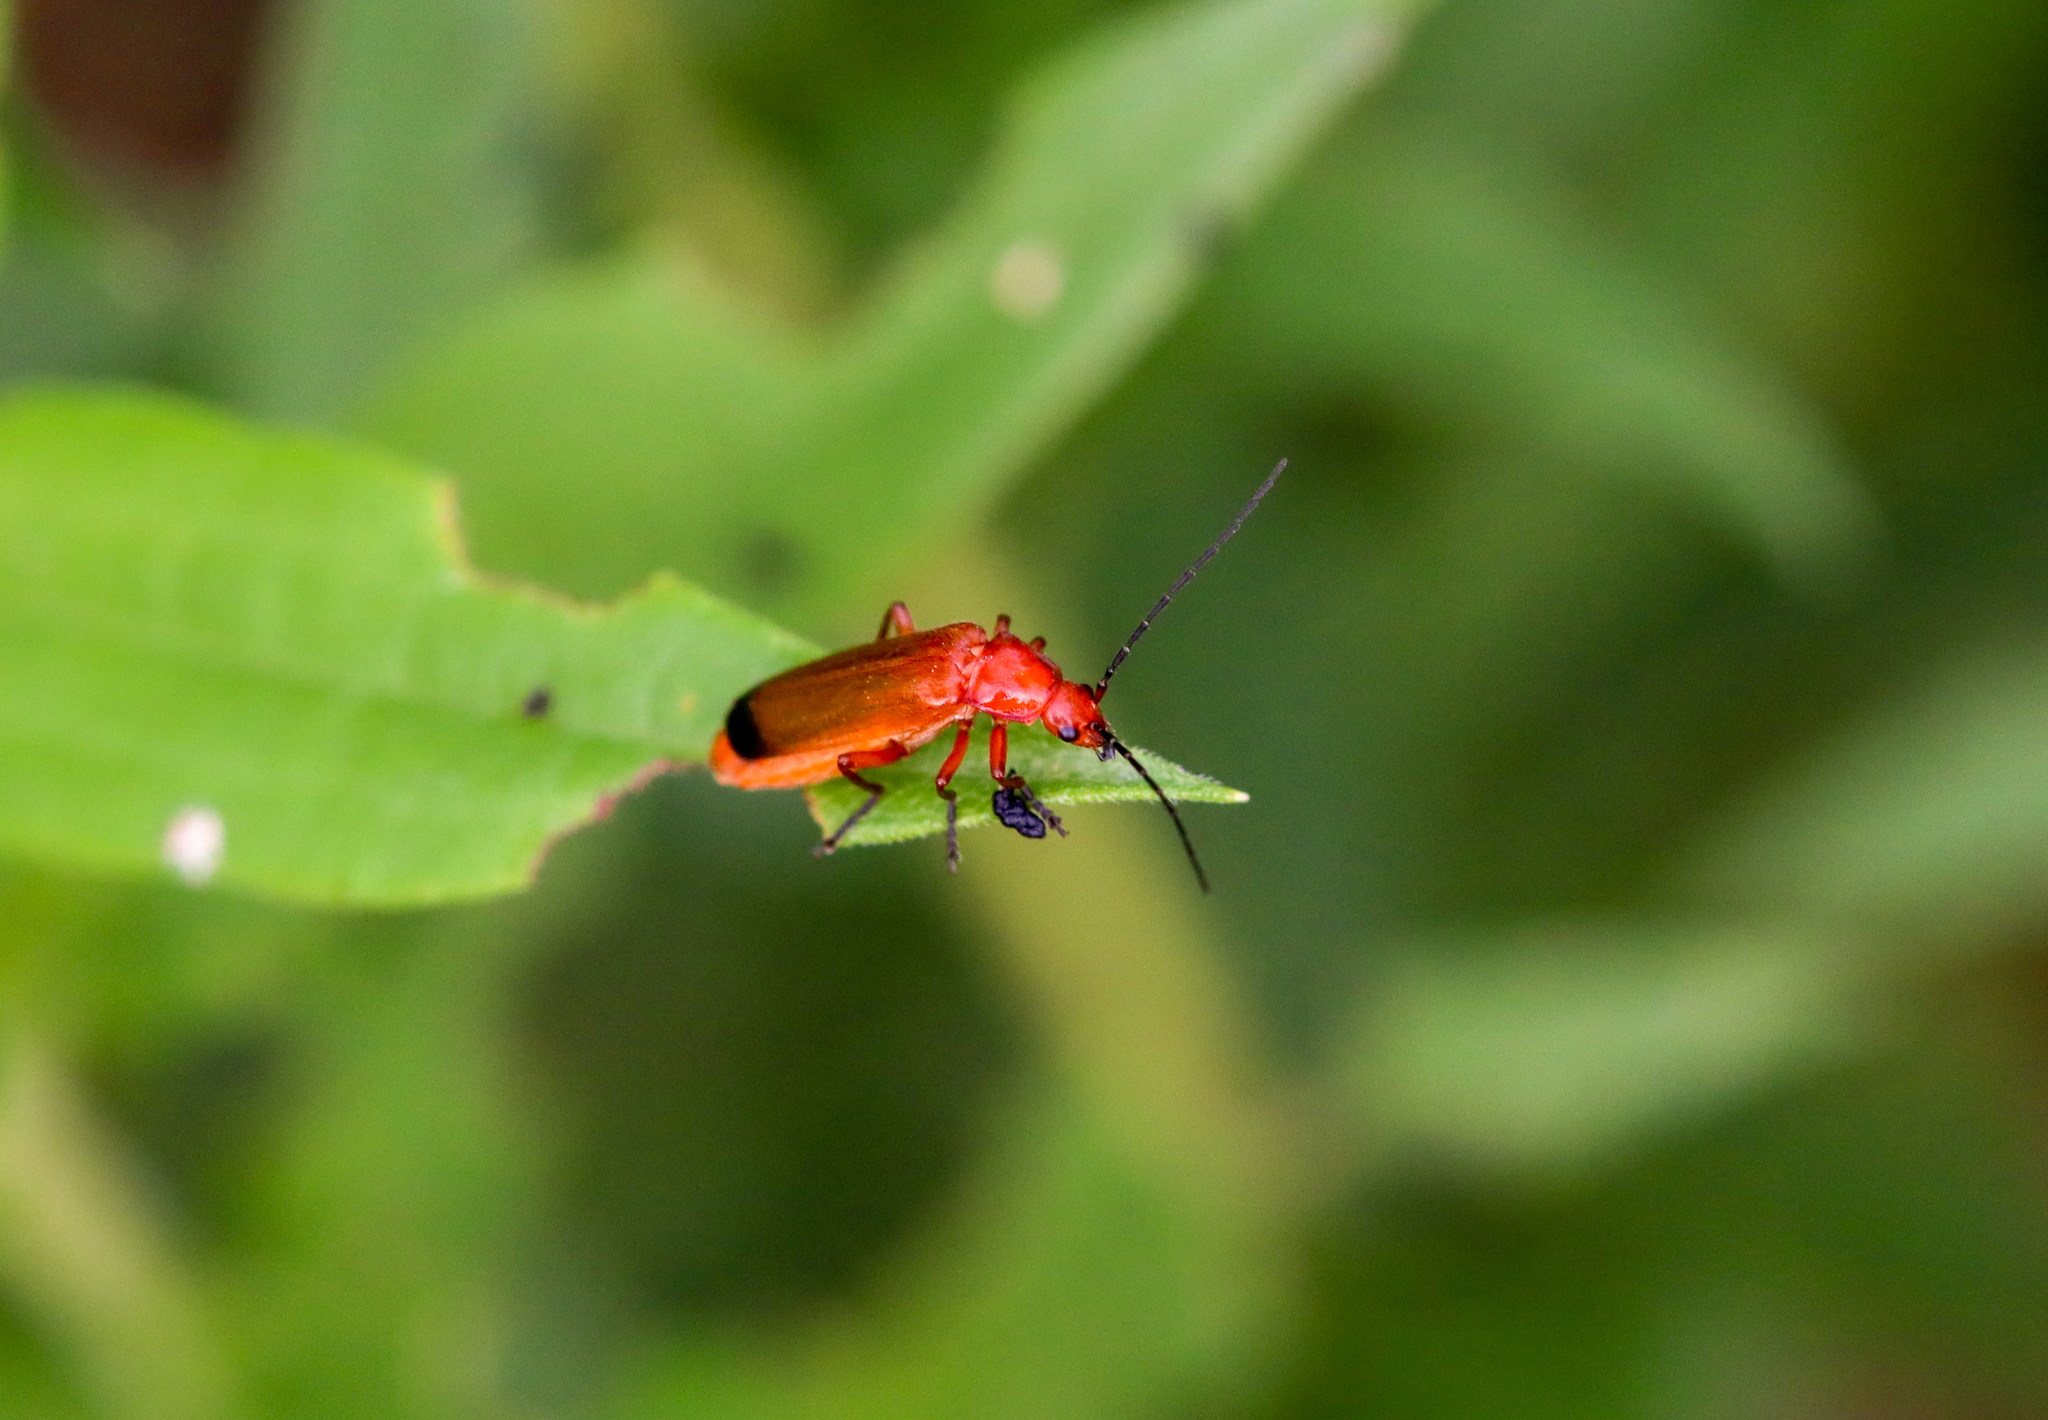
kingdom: Animalia
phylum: Arthropoda
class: Insecta
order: Coleoptera
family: Cantharidae
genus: Rhagonycha
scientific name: Rhagonycha fulva
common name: Common red soldier beetle
